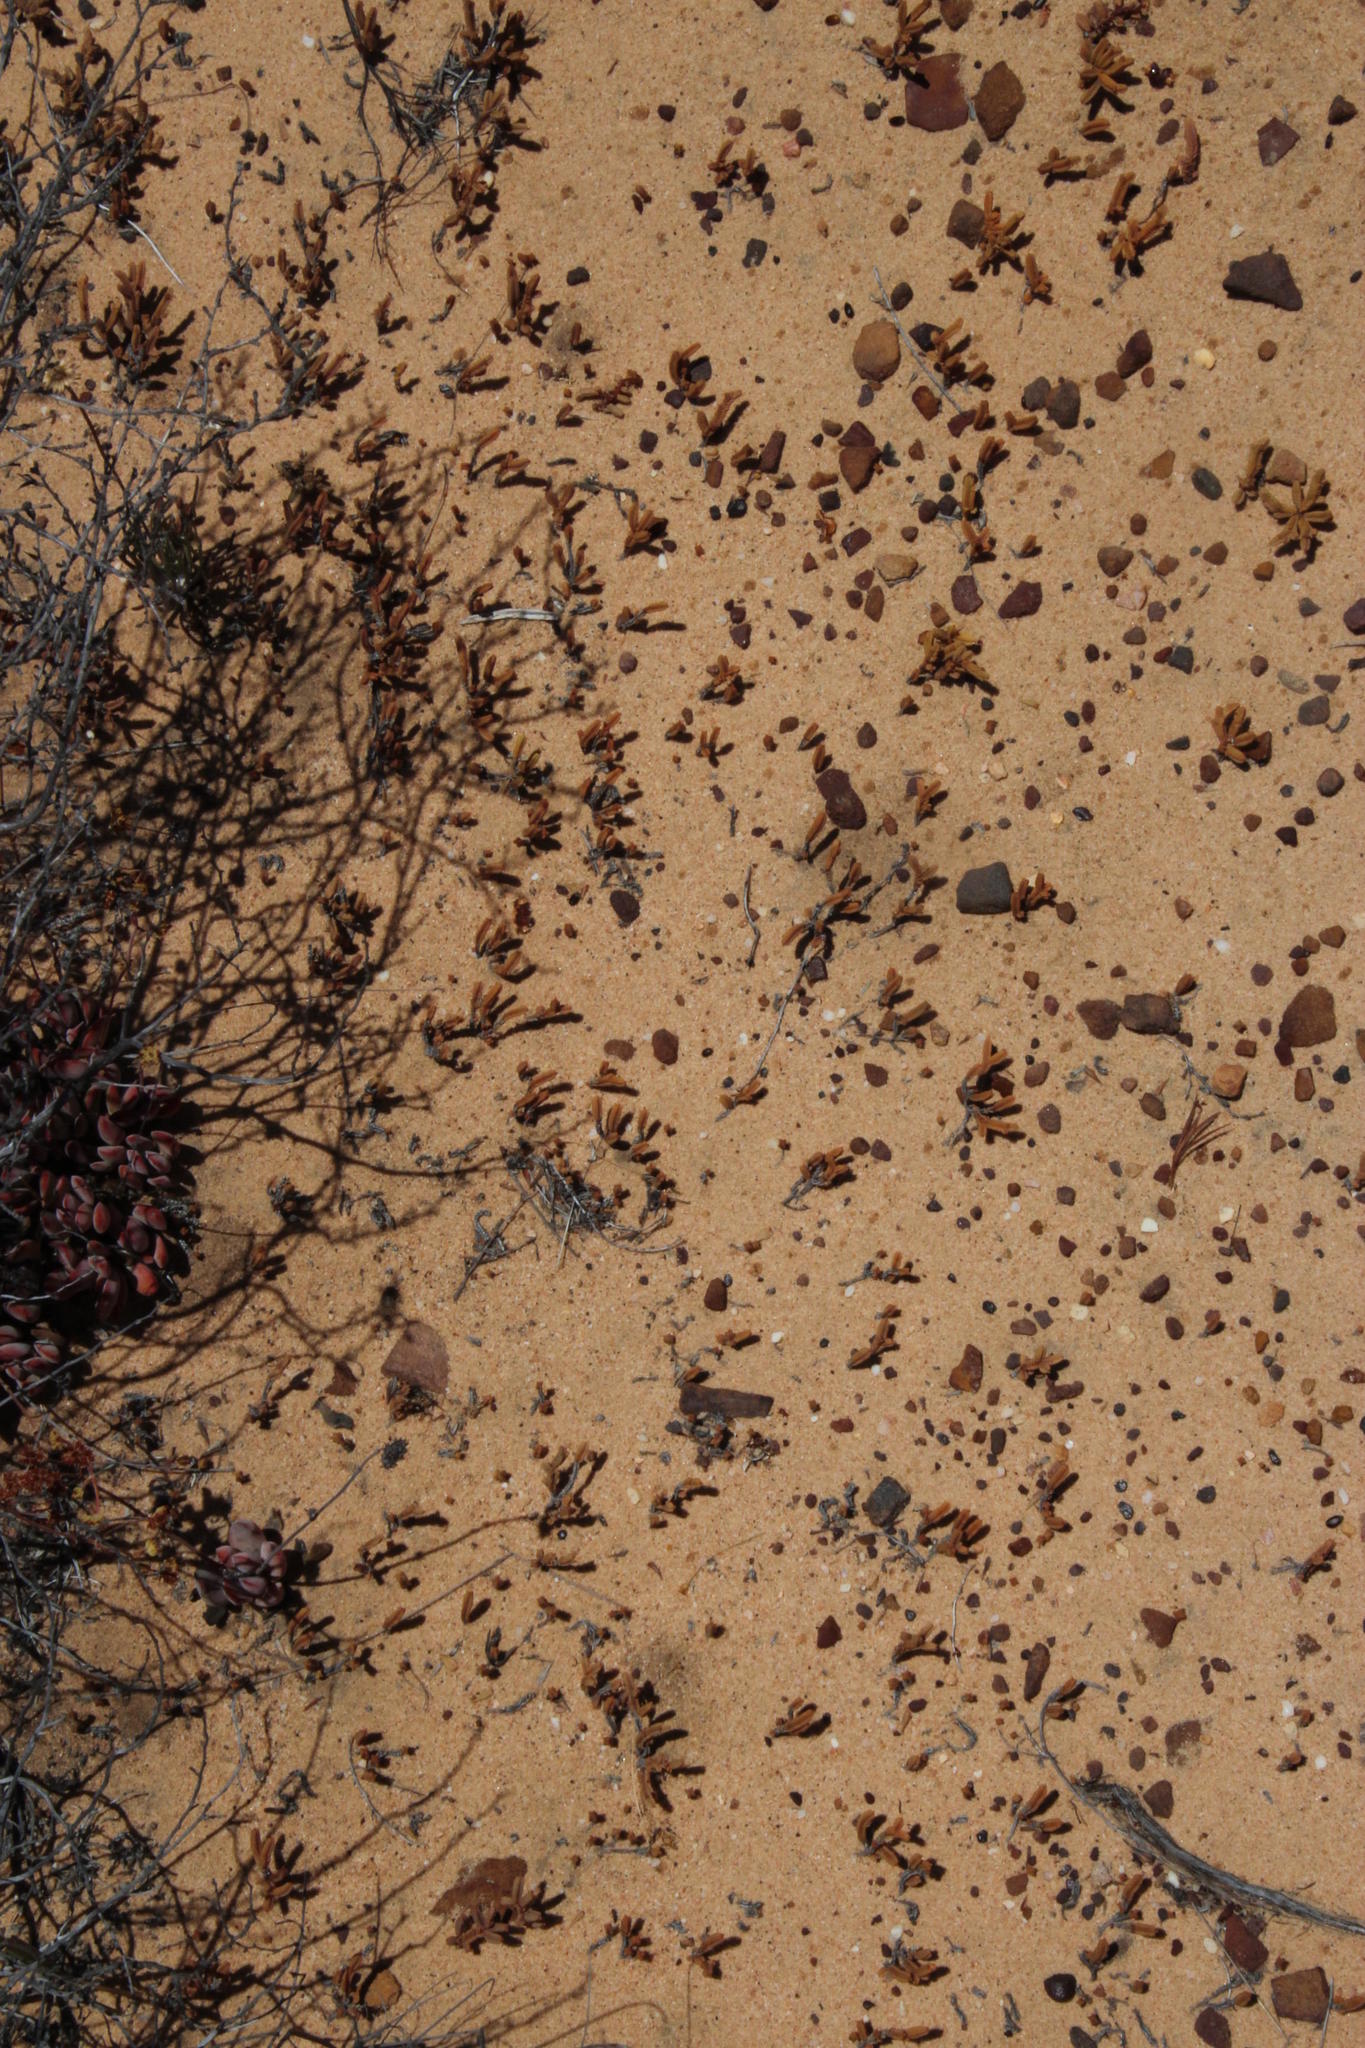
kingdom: Plantae
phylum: Tracheophyta
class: Magnoliopsida
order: Saxifragales
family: Crassulaceae
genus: Crassula
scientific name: Crassula muscosa
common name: Toy-cypress
